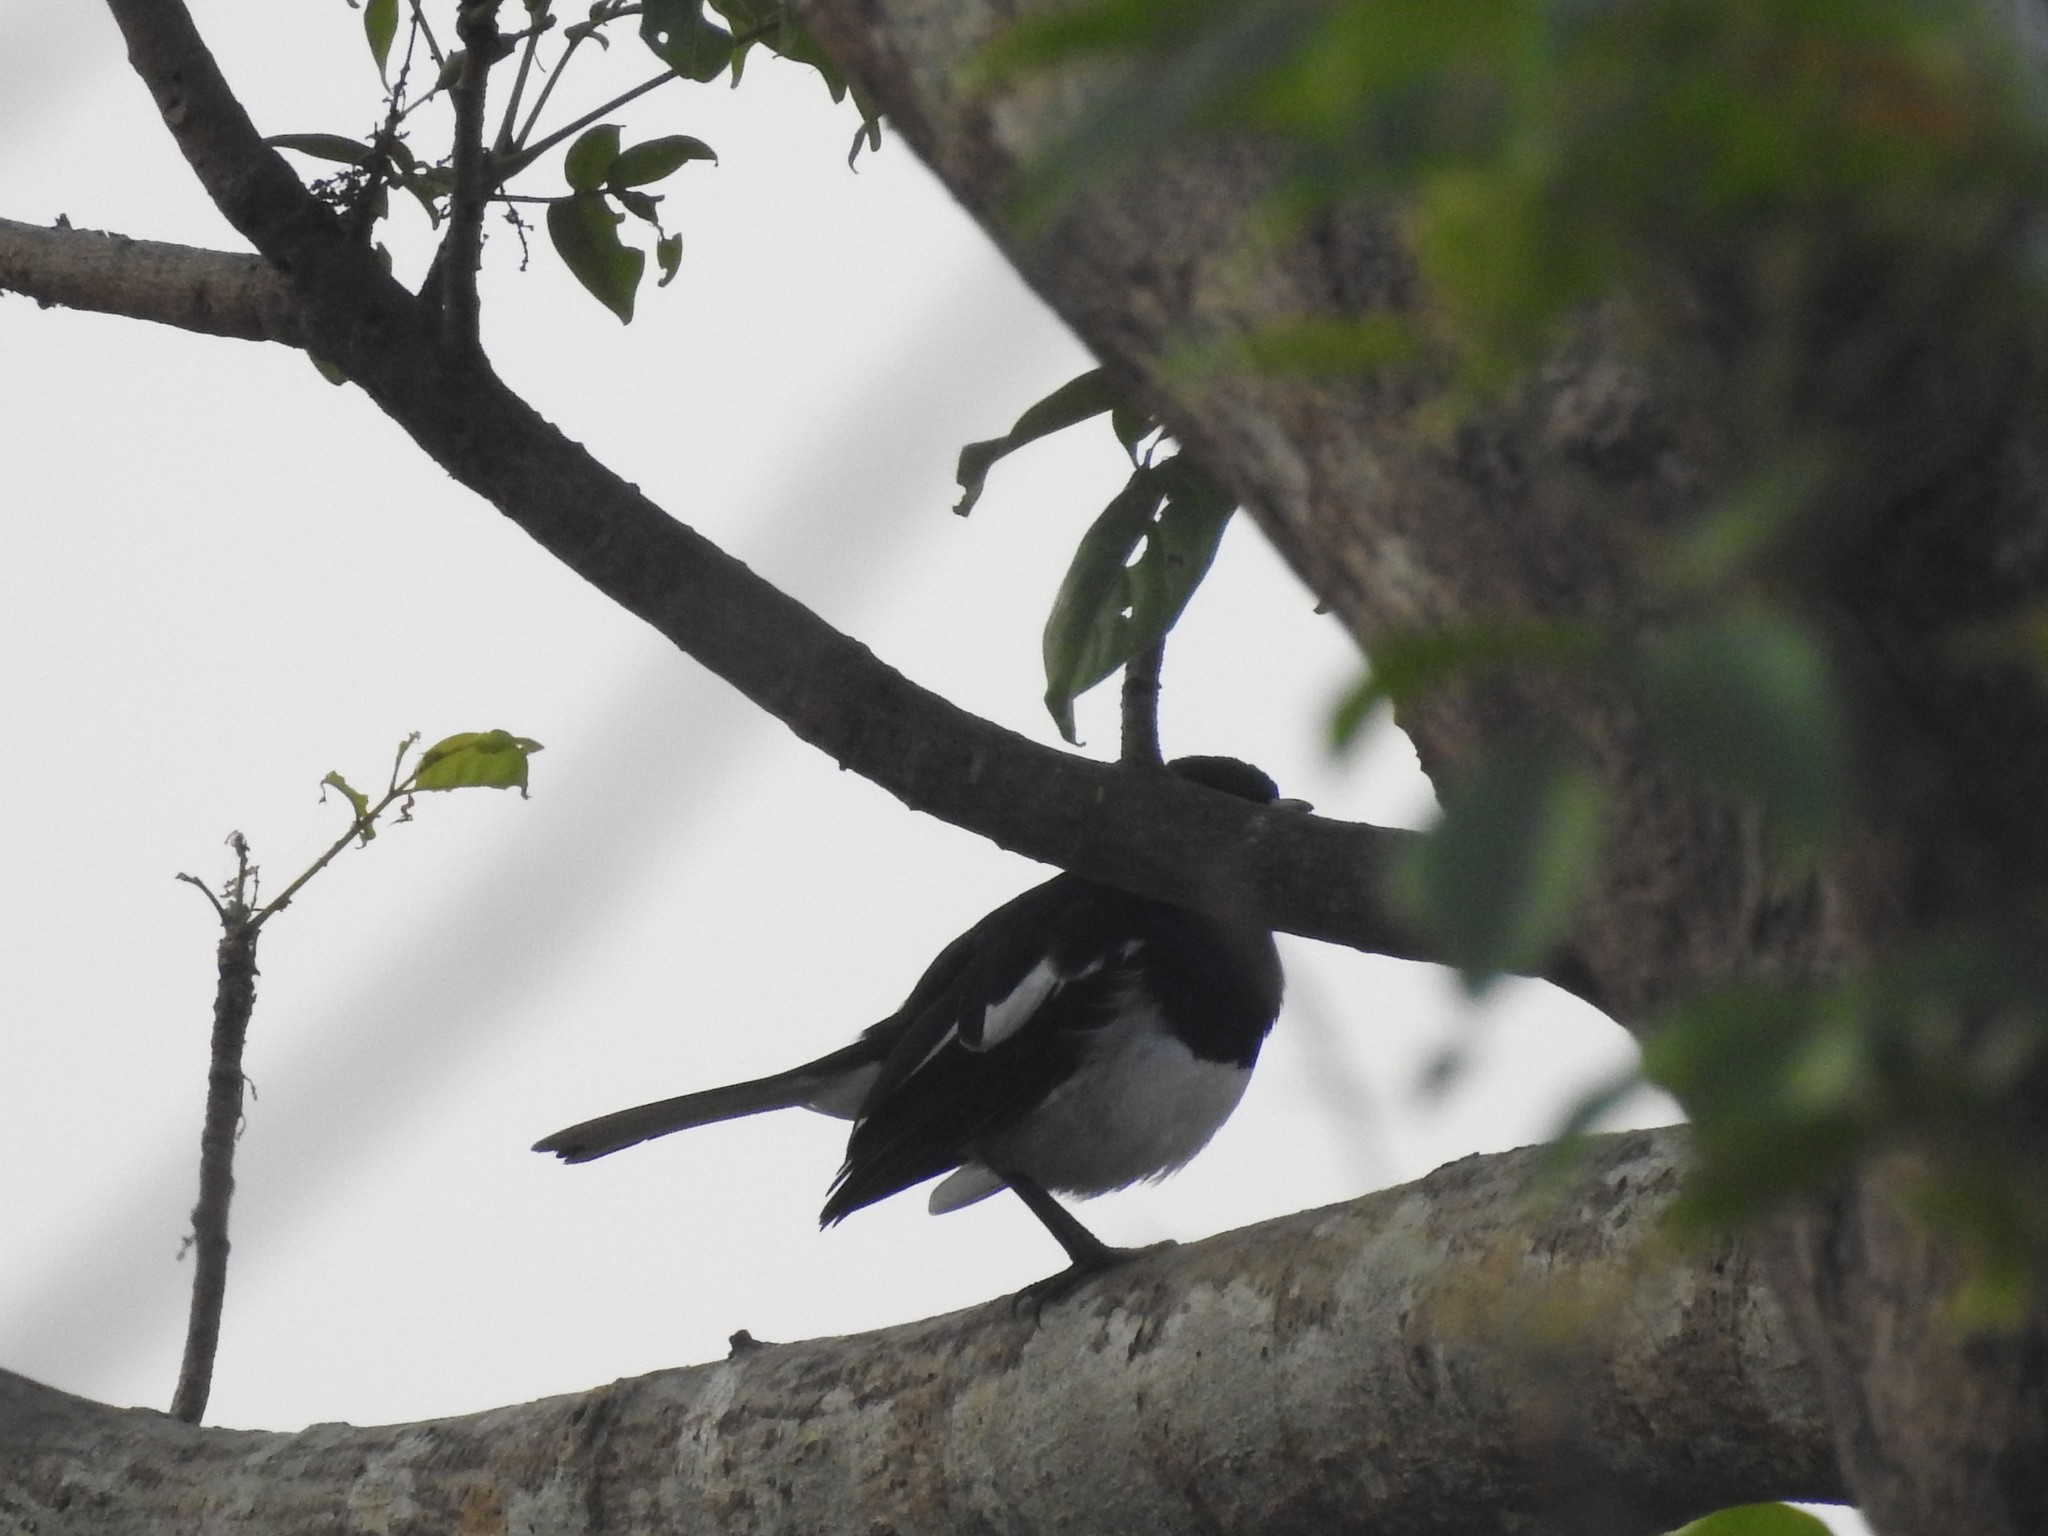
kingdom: Animalia
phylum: Chordata
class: Aves
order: Passeriformes
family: Muscicapidae
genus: Copsychus
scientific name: Copsychus saularis
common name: Oriental magpie-robin
